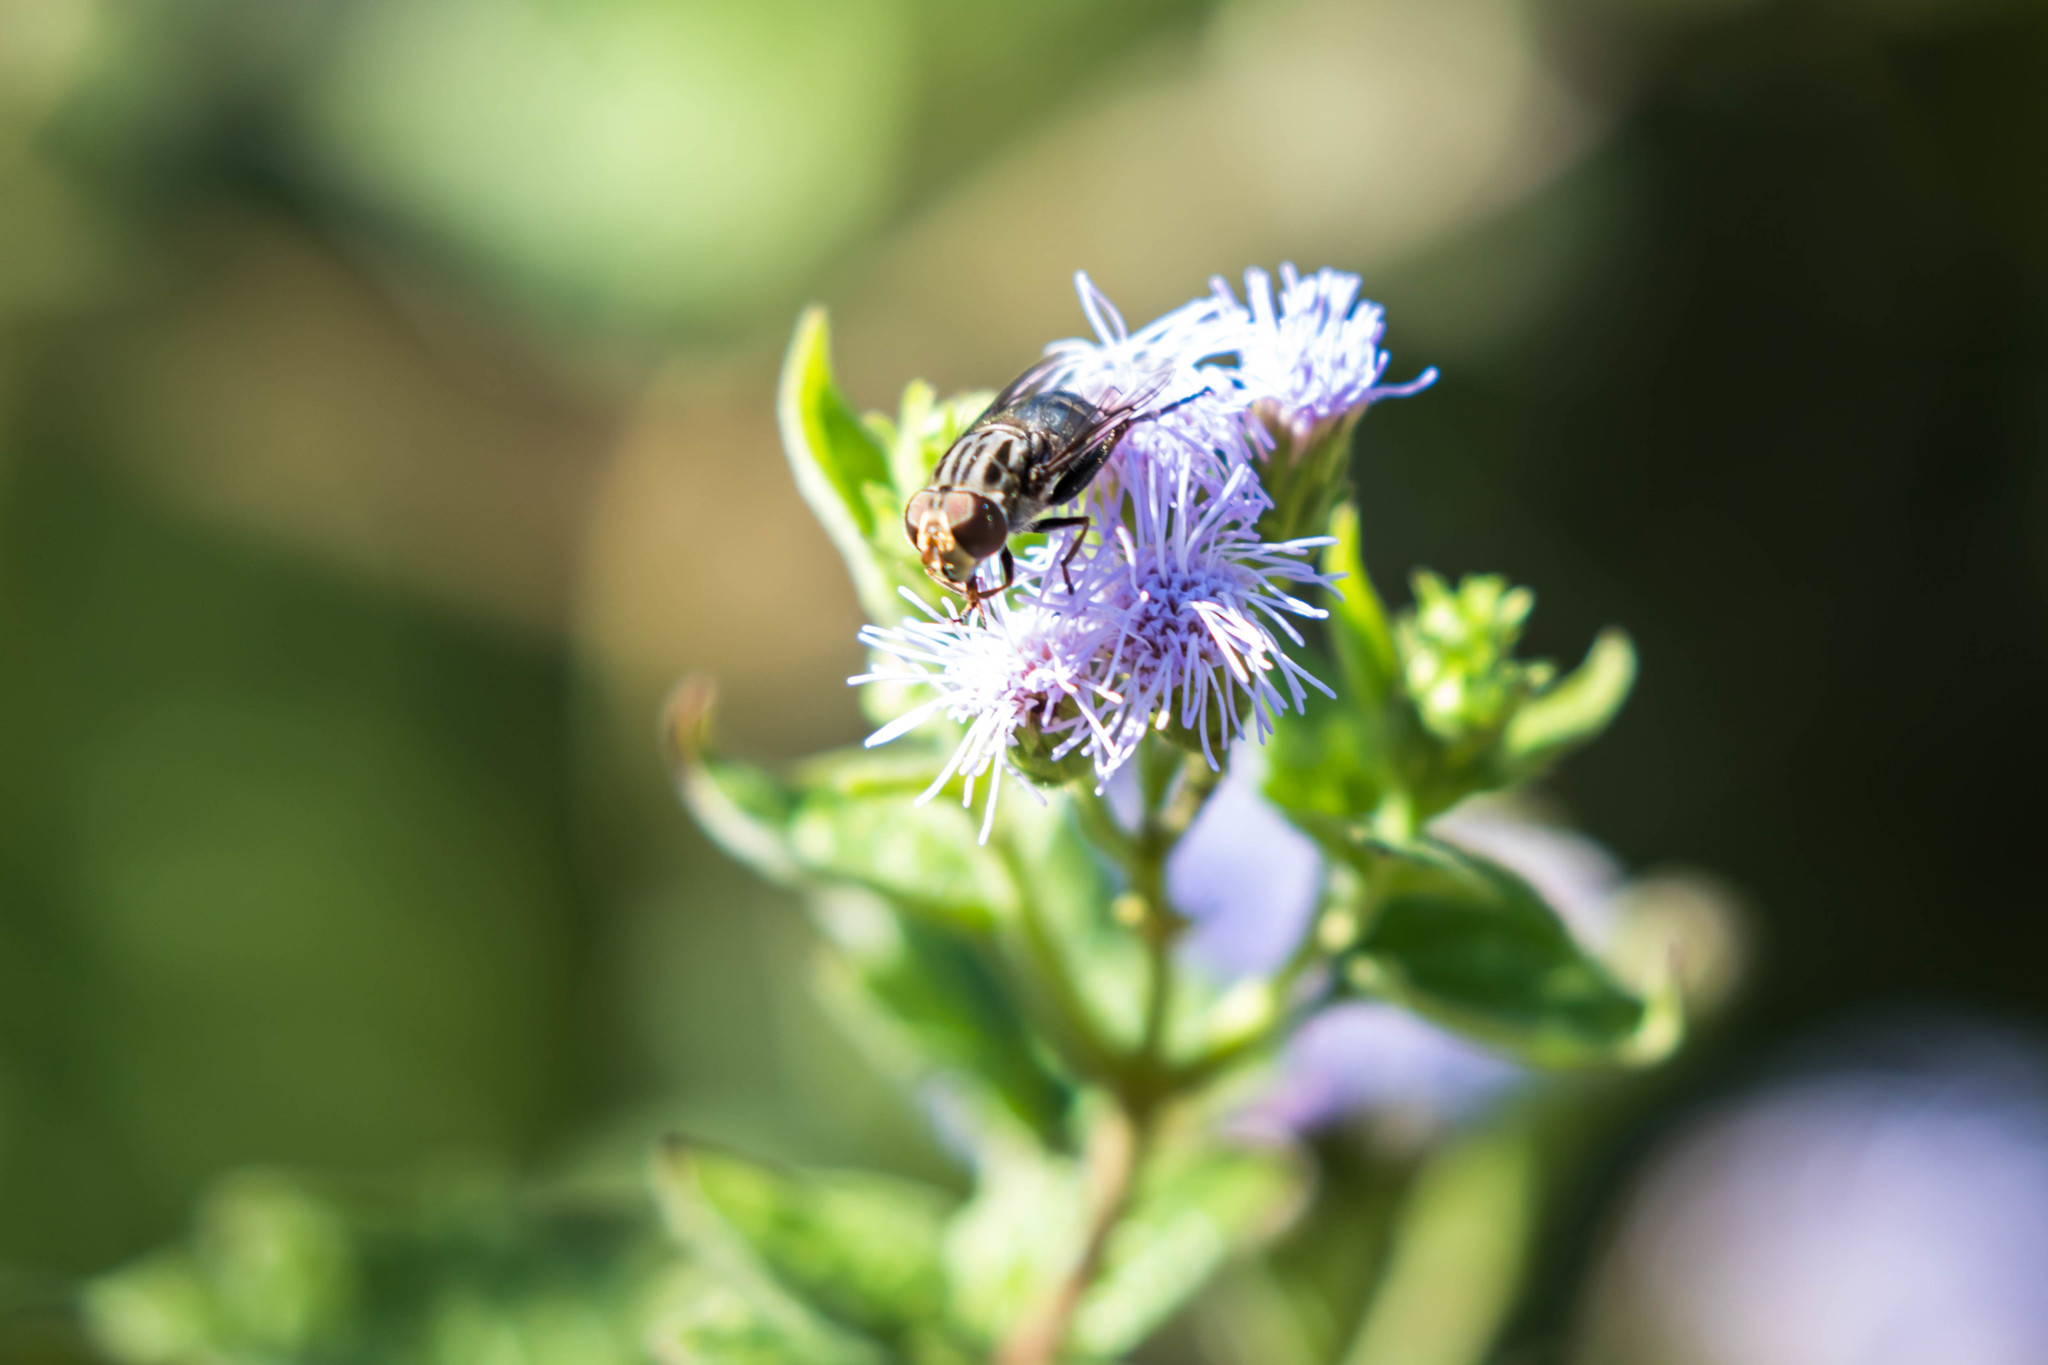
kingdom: Animalia
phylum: Arthropoda
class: Insecta
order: Diptera
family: Syrphidae
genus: Palpada
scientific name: Palpada furcata
